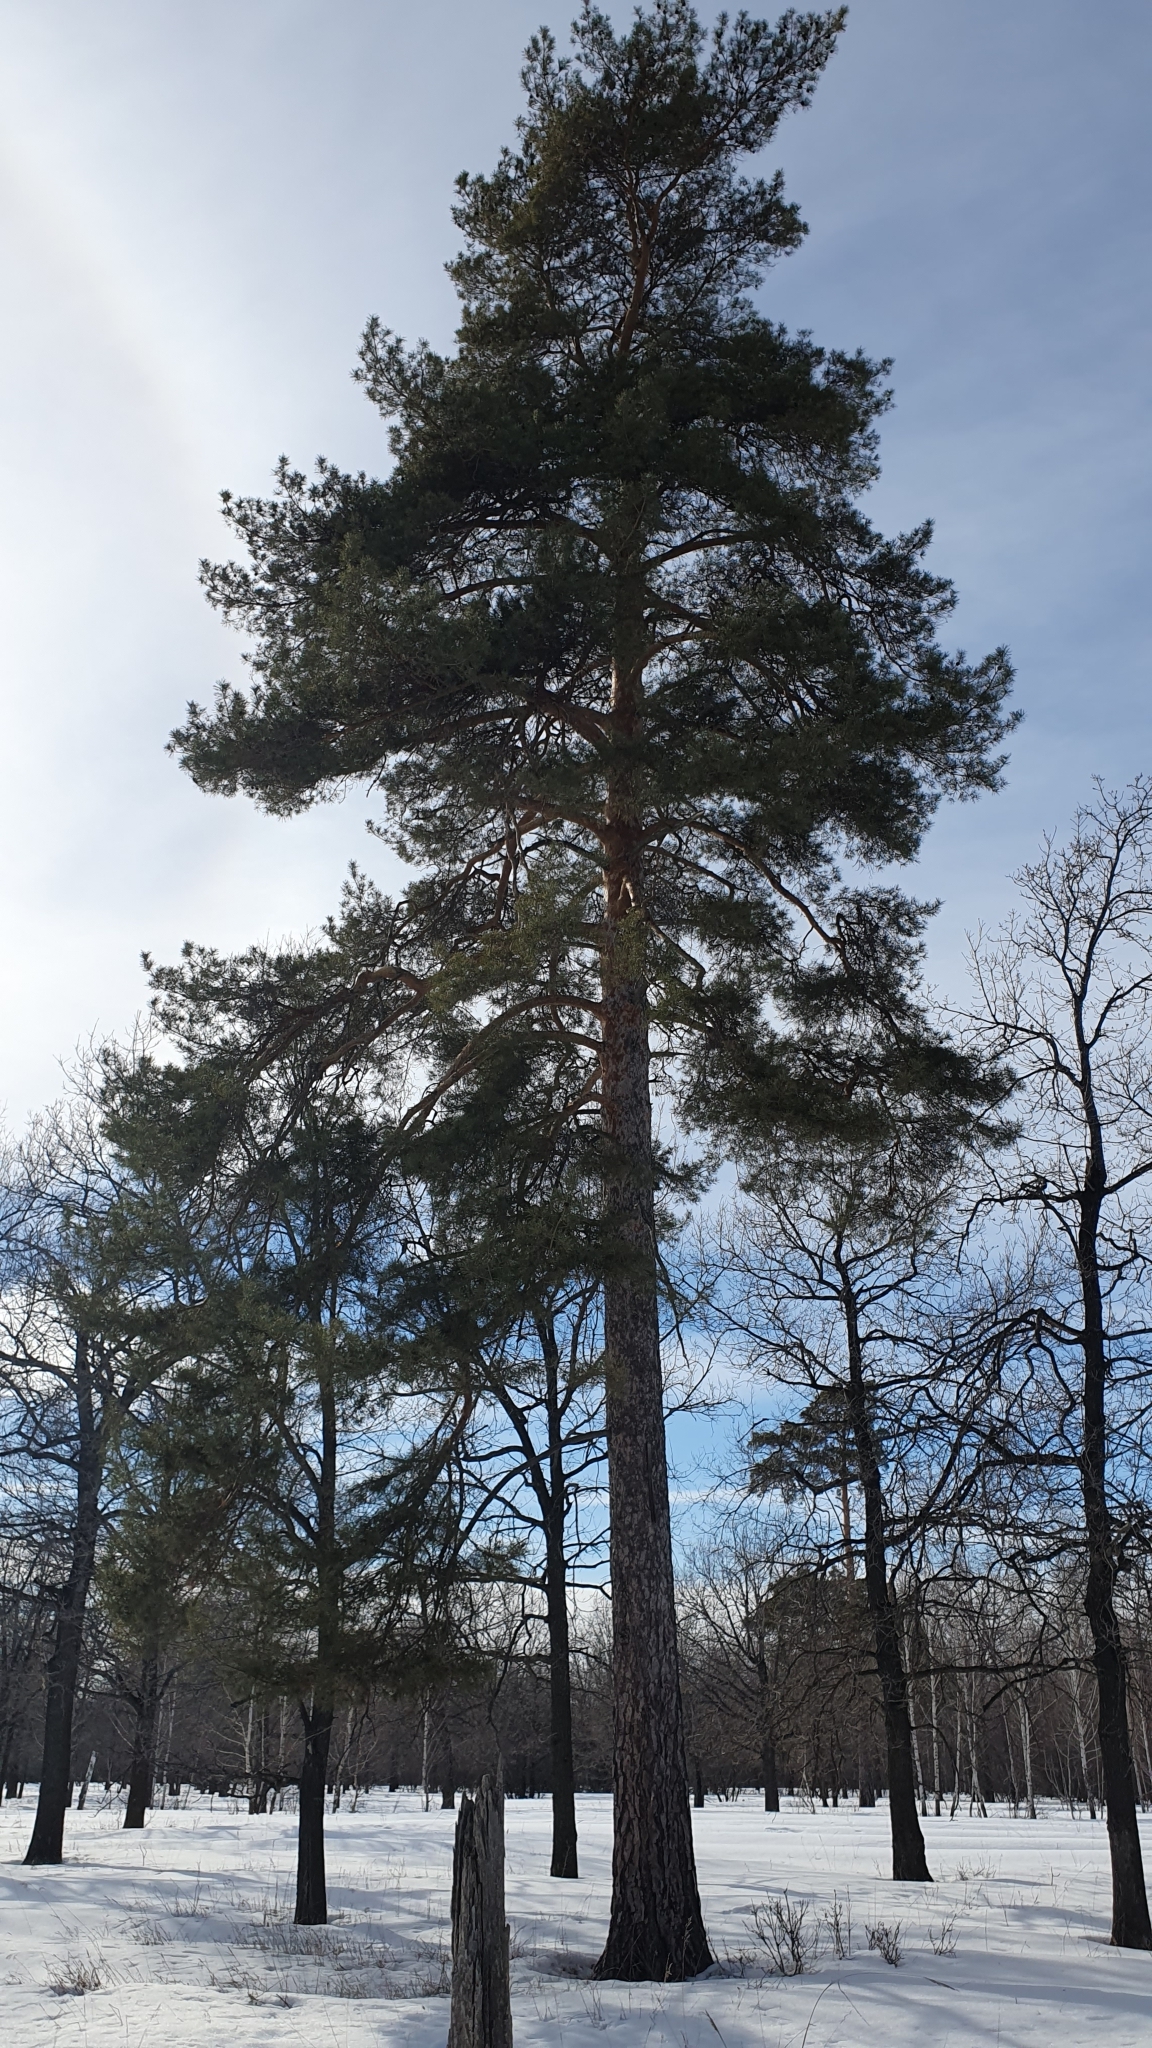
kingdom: Plantae
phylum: Tracheophyta
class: Pinopsida
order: Pinales
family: Pinaceae
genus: Pinus
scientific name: Pinus sylvestris
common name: Scots pine
